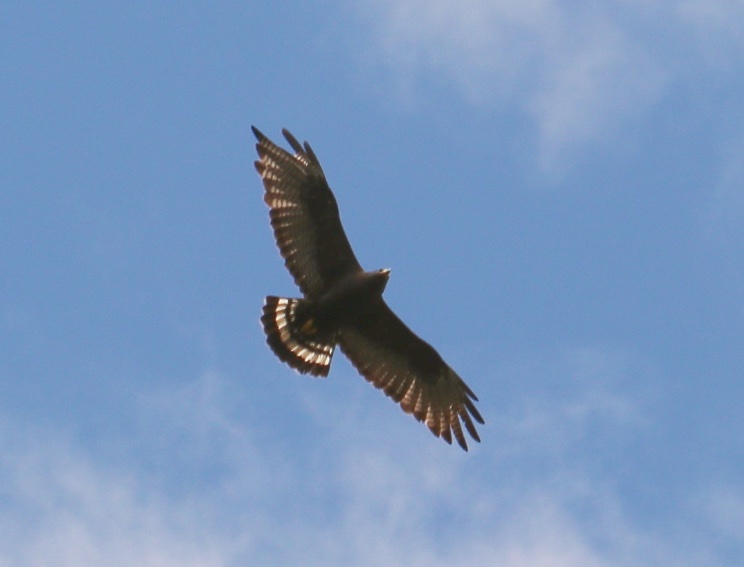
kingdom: Animalia
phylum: Chordata
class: Aves
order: Accipitriformes
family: Accipitridae
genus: Buteo
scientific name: Buteo albonotatus
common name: Zone-tailed hawk
